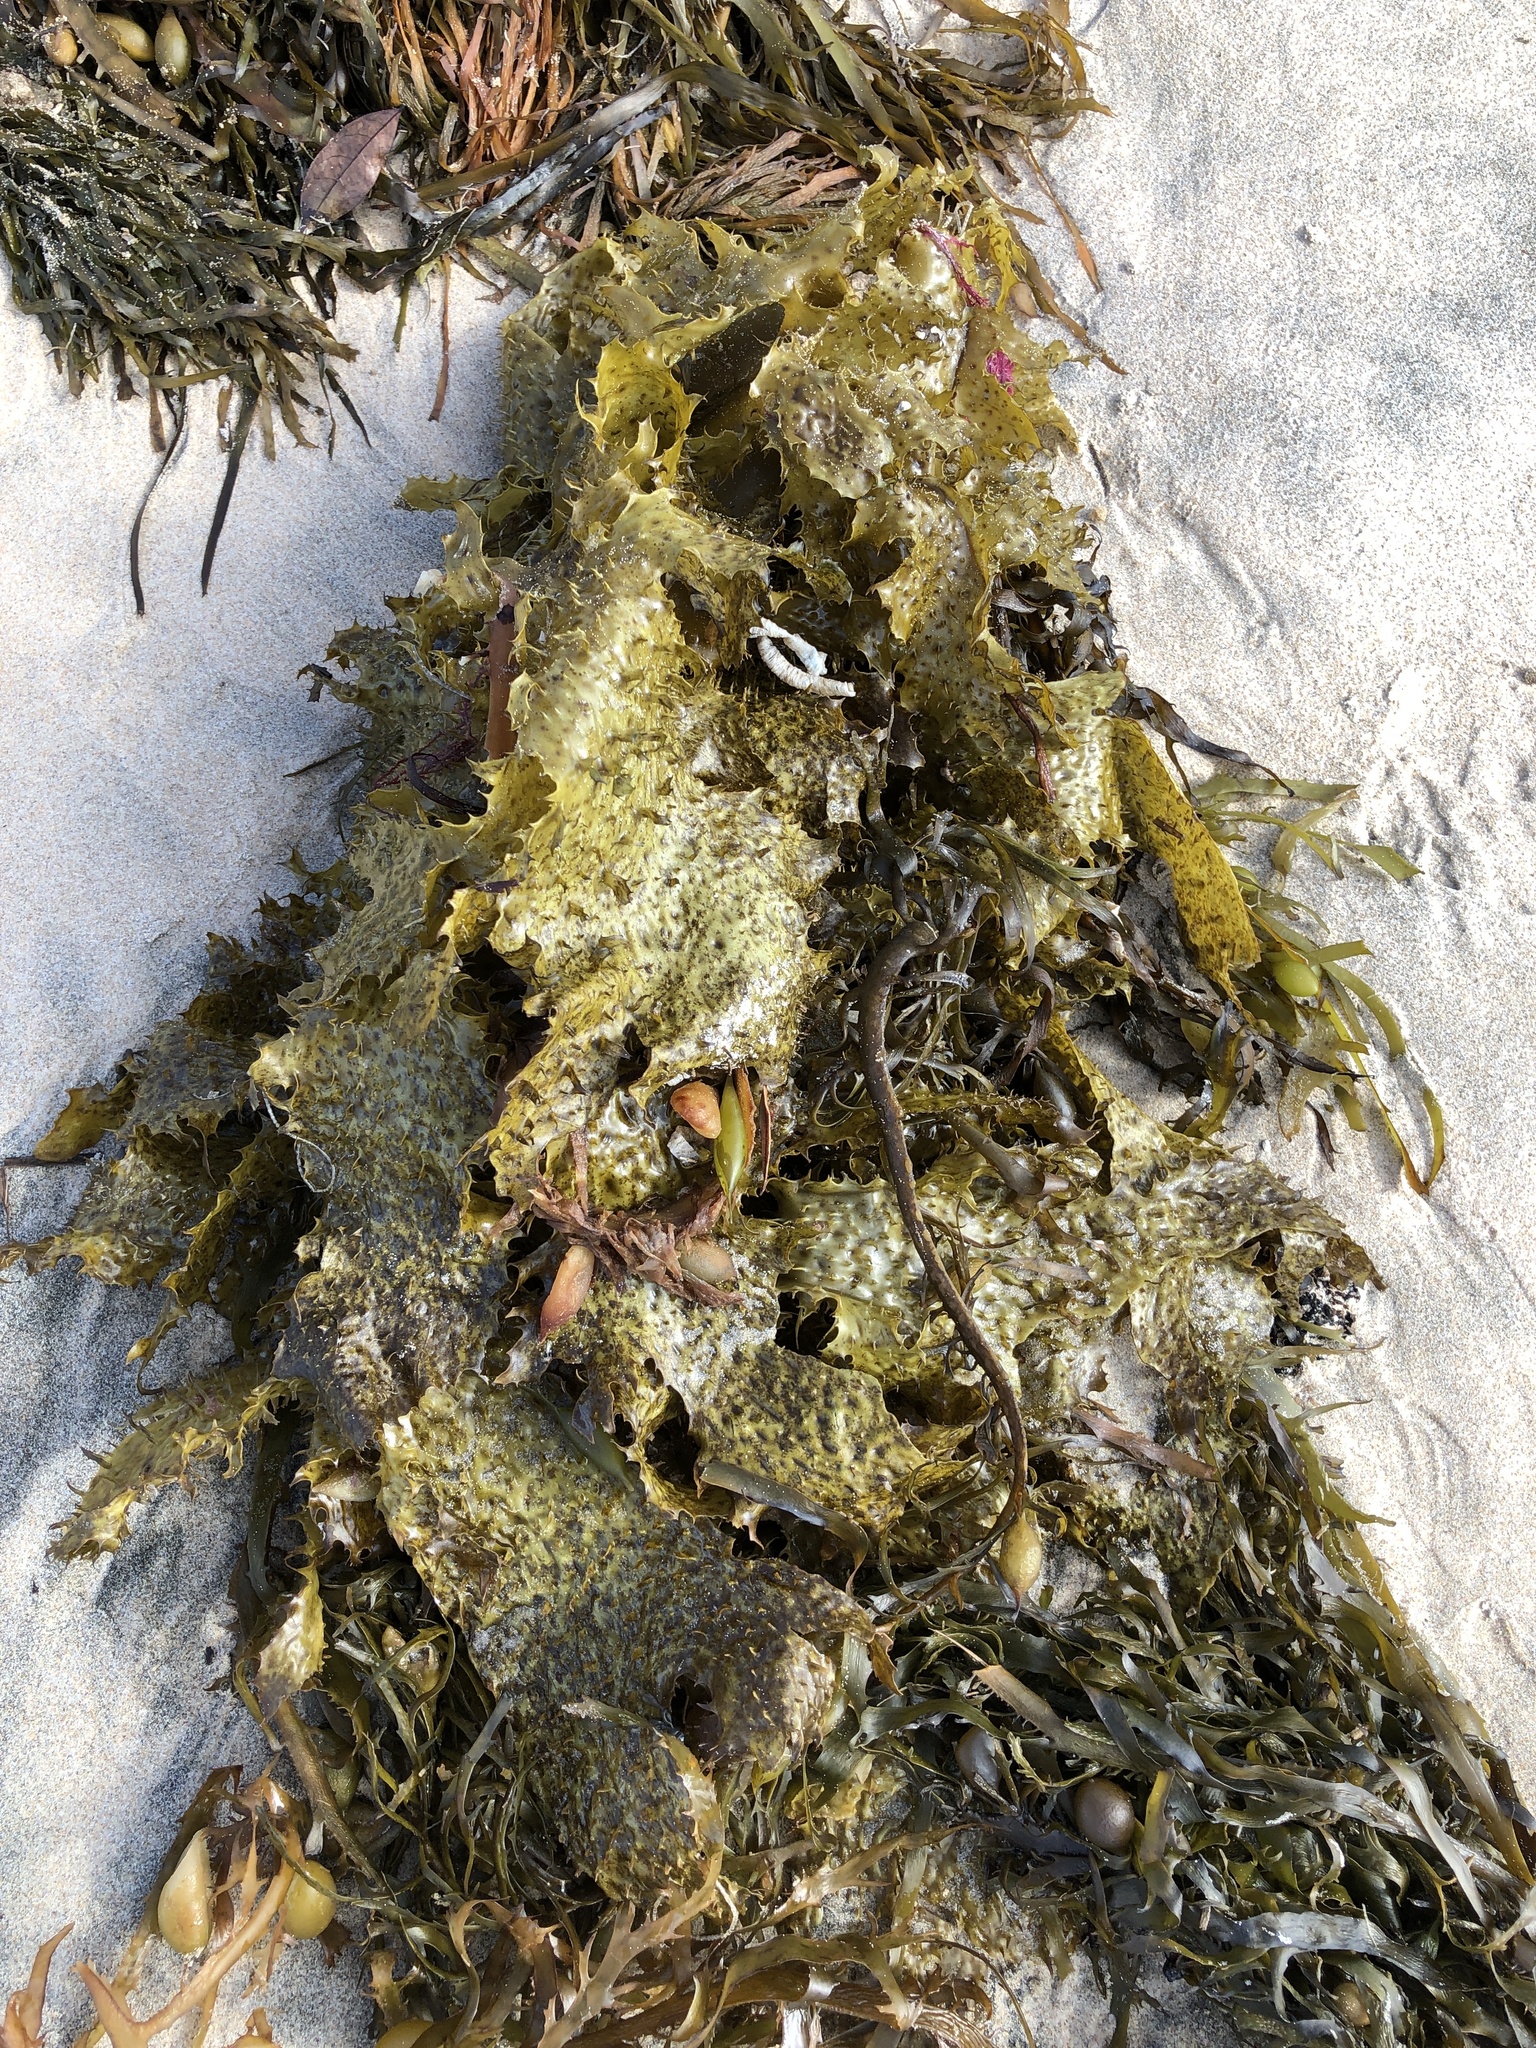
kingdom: Chromista
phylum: Ochrophyta
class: Phaeophyceae
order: Laminariales
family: Lessoniaceae
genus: Ecklonia
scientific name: Ecklonia radiata
